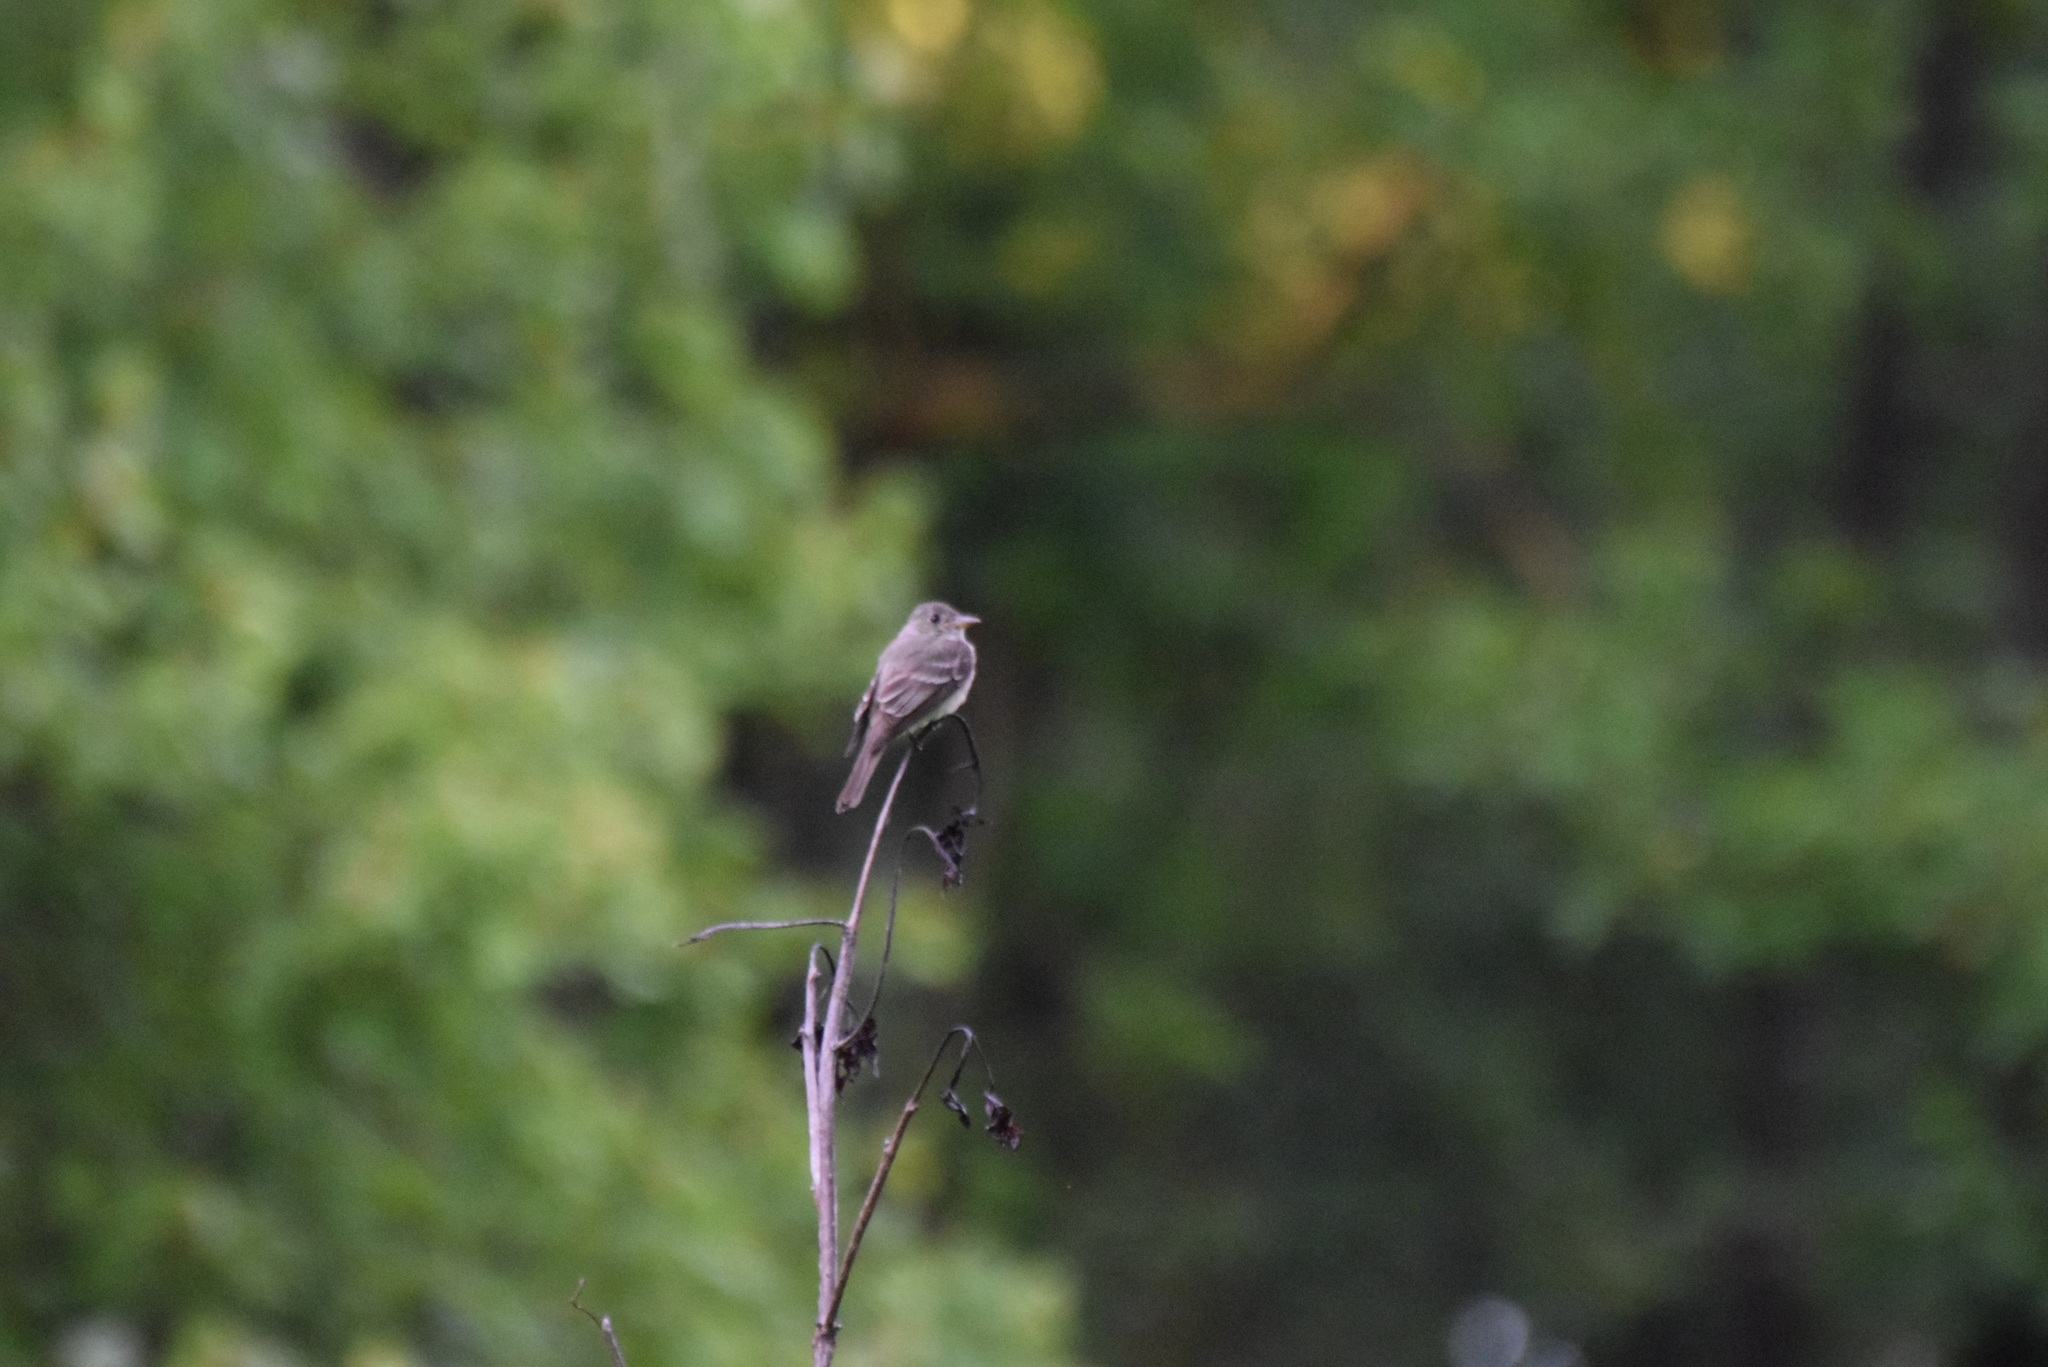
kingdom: Animalia
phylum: Chordata
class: Aves
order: Passeriformes
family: Tyrannidae
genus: Contopus
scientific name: Contopus virens
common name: Eastern wood-pewee
